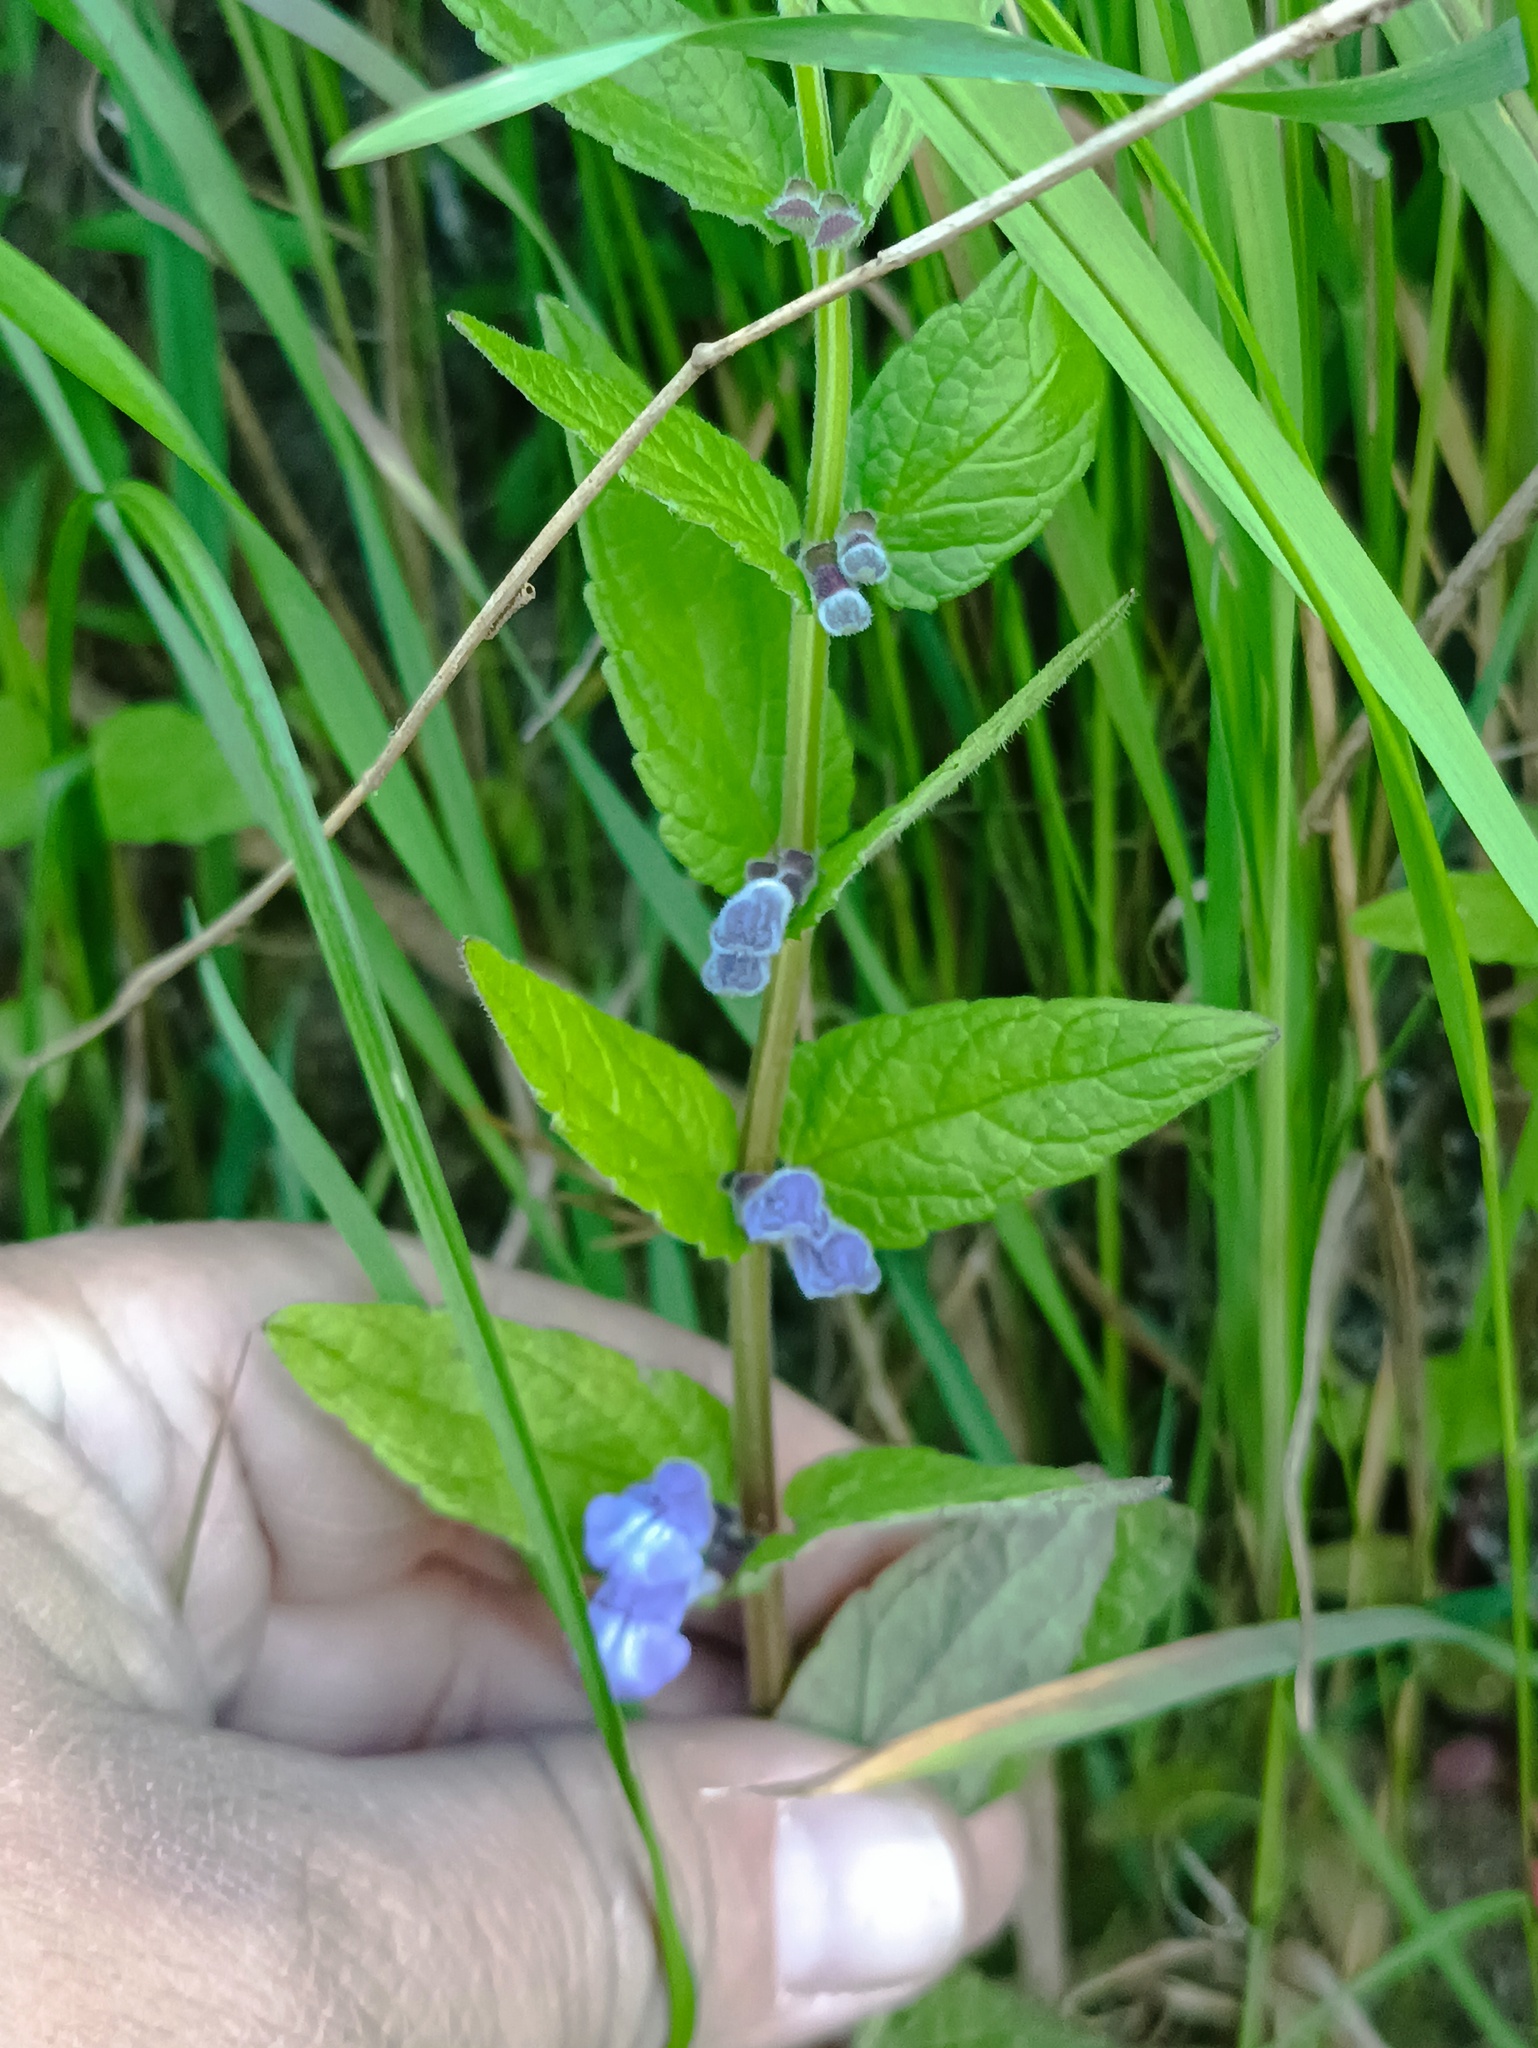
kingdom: Plantae
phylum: Tracheophyta
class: Magnoliopsida
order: Lamiales
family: Lamiaceae
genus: Scutellaria
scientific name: Scutellaria galericulata
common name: Skullcap
